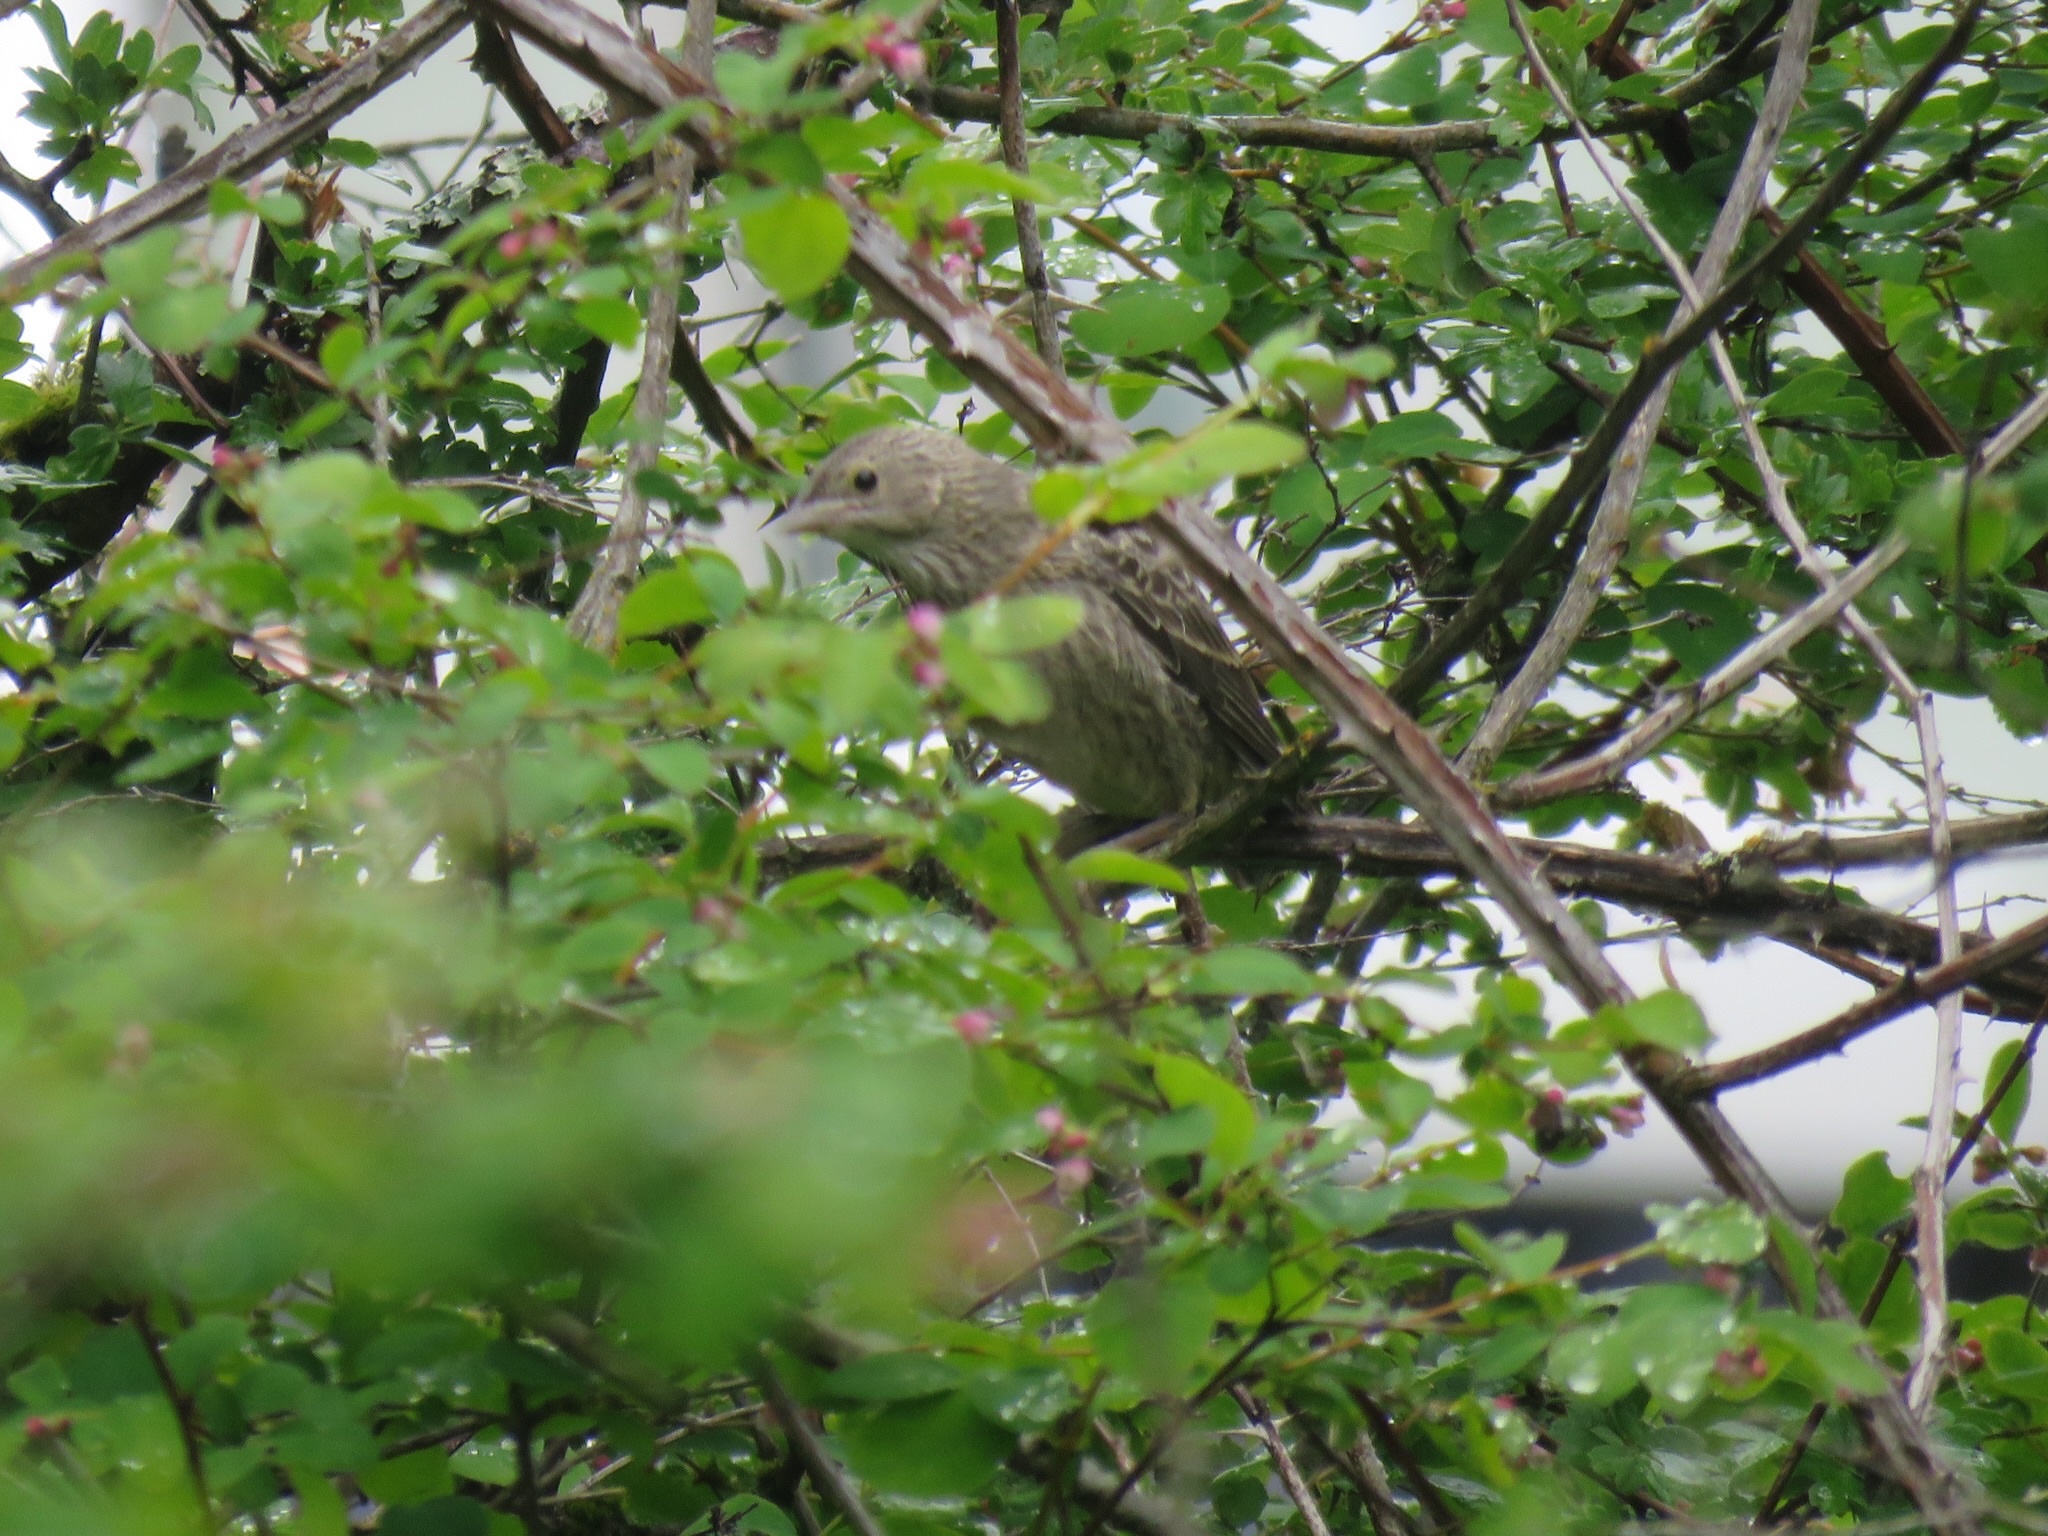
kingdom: Animalia
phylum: Chordata
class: Aves
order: Passeriformes
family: Icteridae
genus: Molothrus
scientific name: Molothrus ater
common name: Brown-headed cowbird
